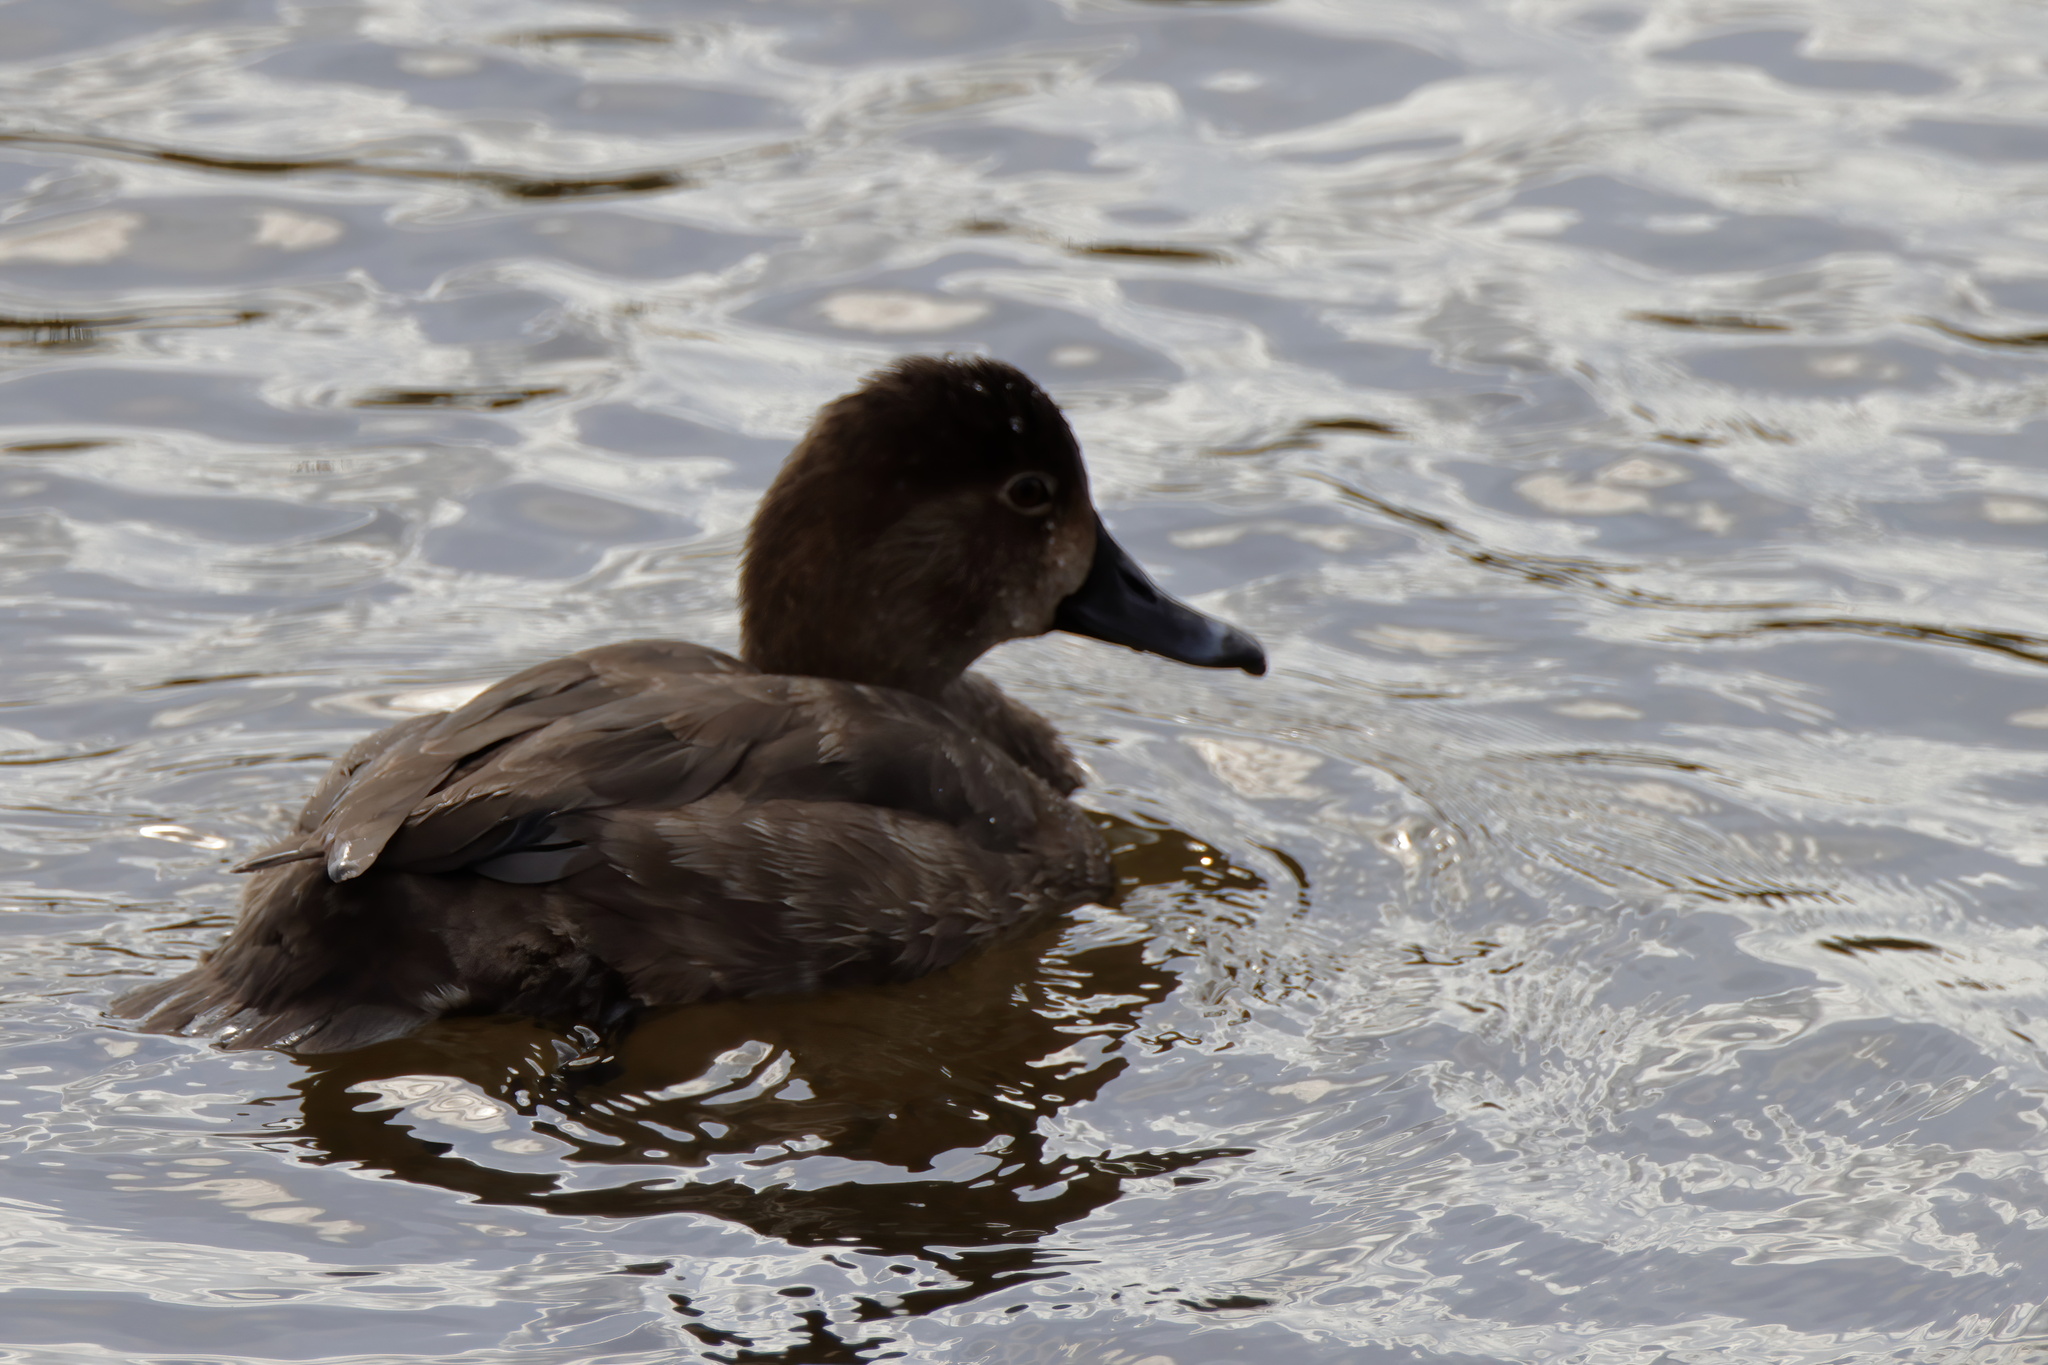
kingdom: Animalia
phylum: Chordata
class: Aves
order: Anseriformes
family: Anatidae
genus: Aythya
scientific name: Aythya americana
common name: Redhead
